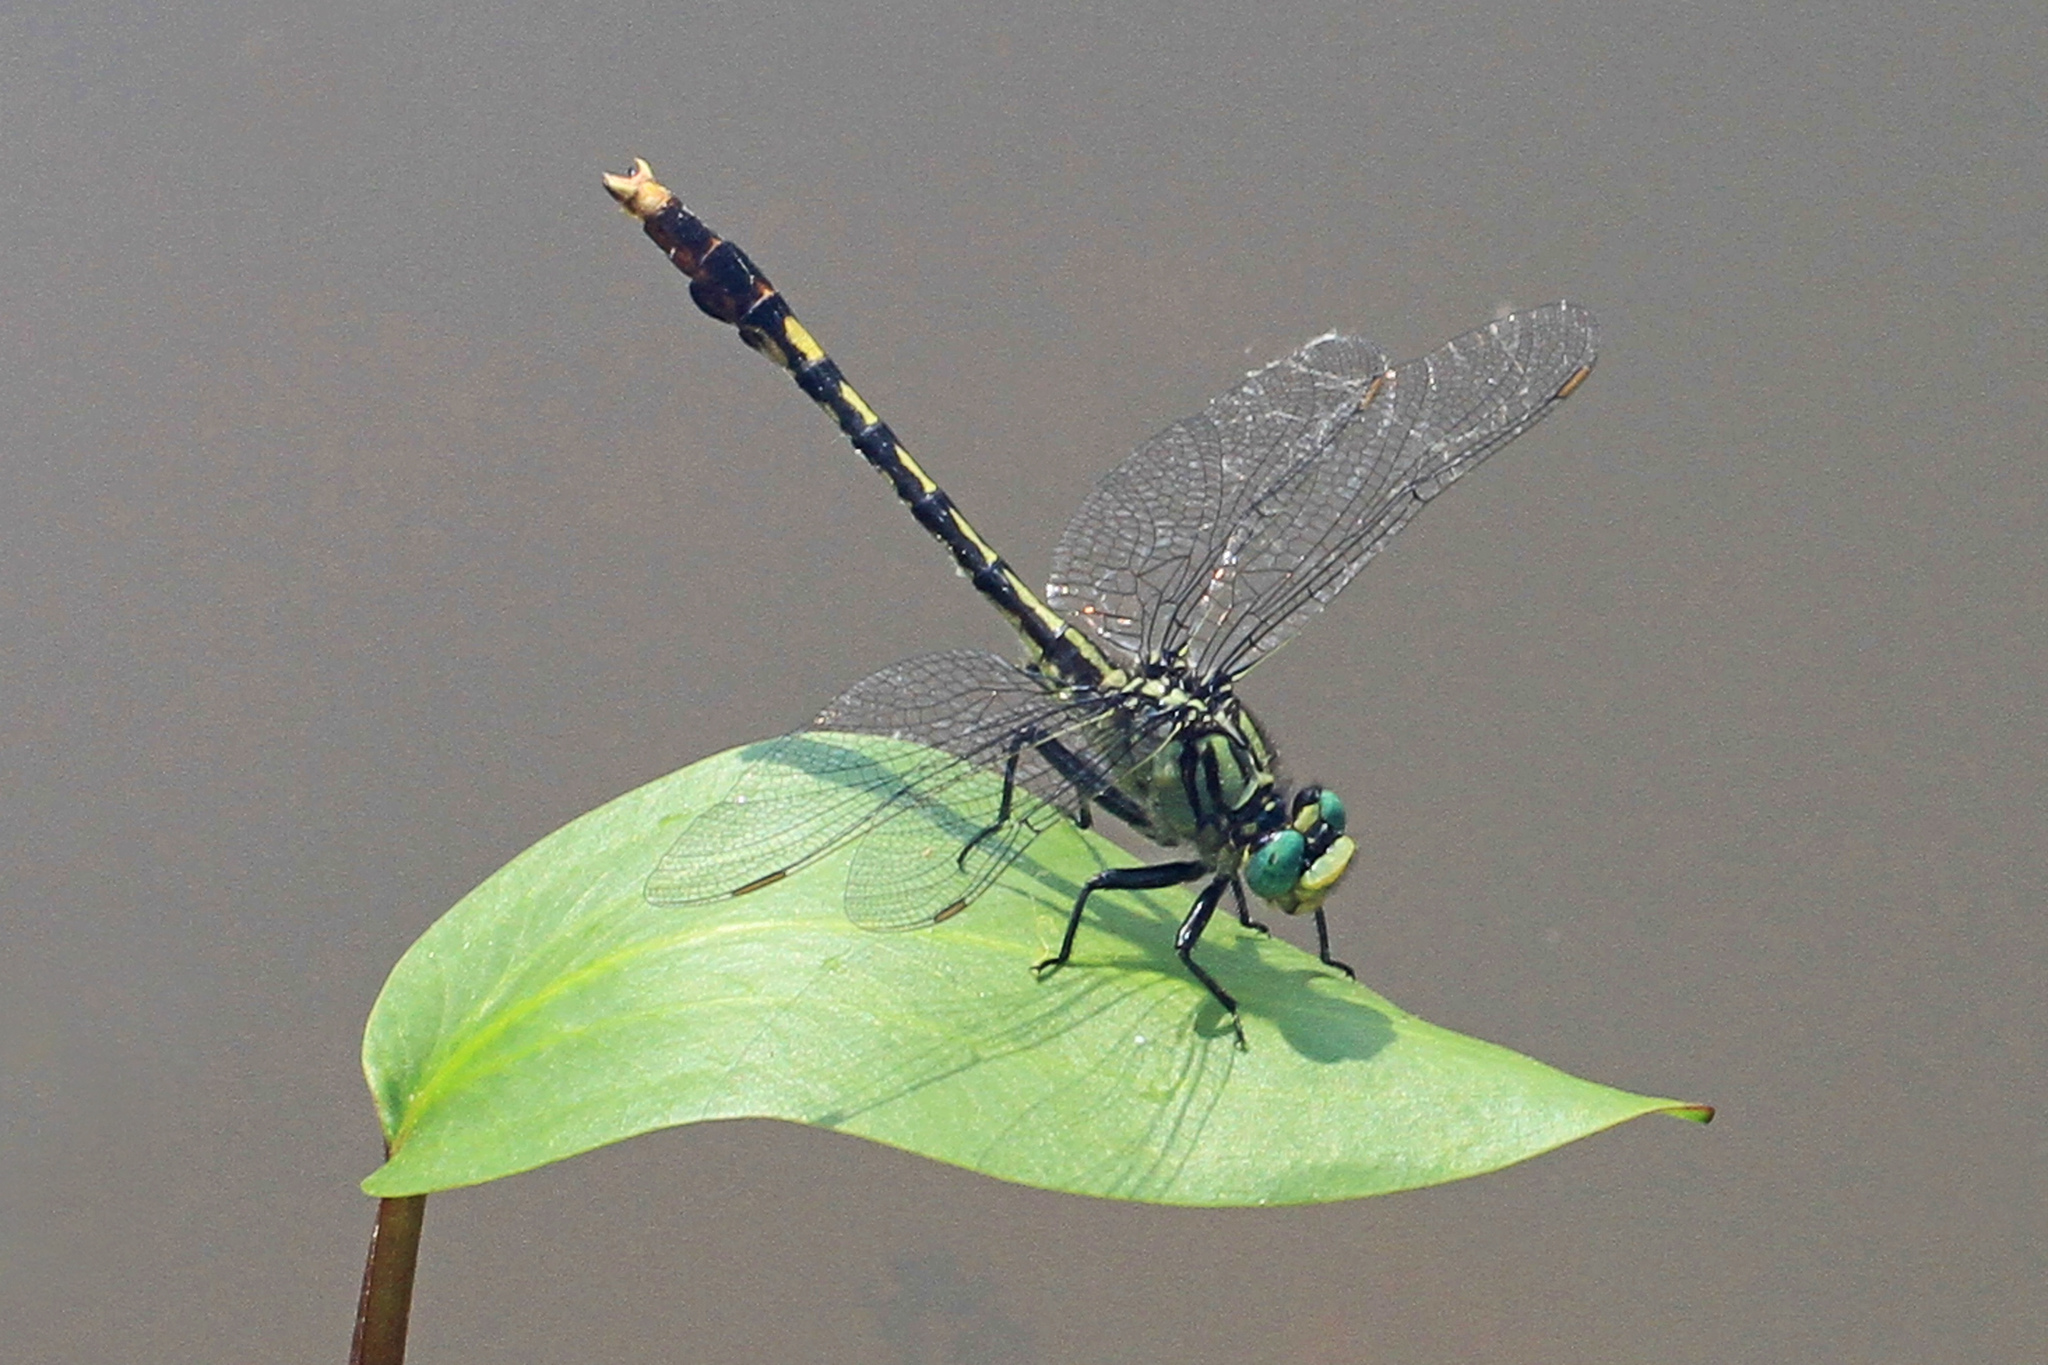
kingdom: Animalia
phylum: Arthropoda
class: Insecta
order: Odonata
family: Gomphidae
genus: Arigomphus
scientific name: Arigomphus villosipes
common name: Unicorn clubtail
